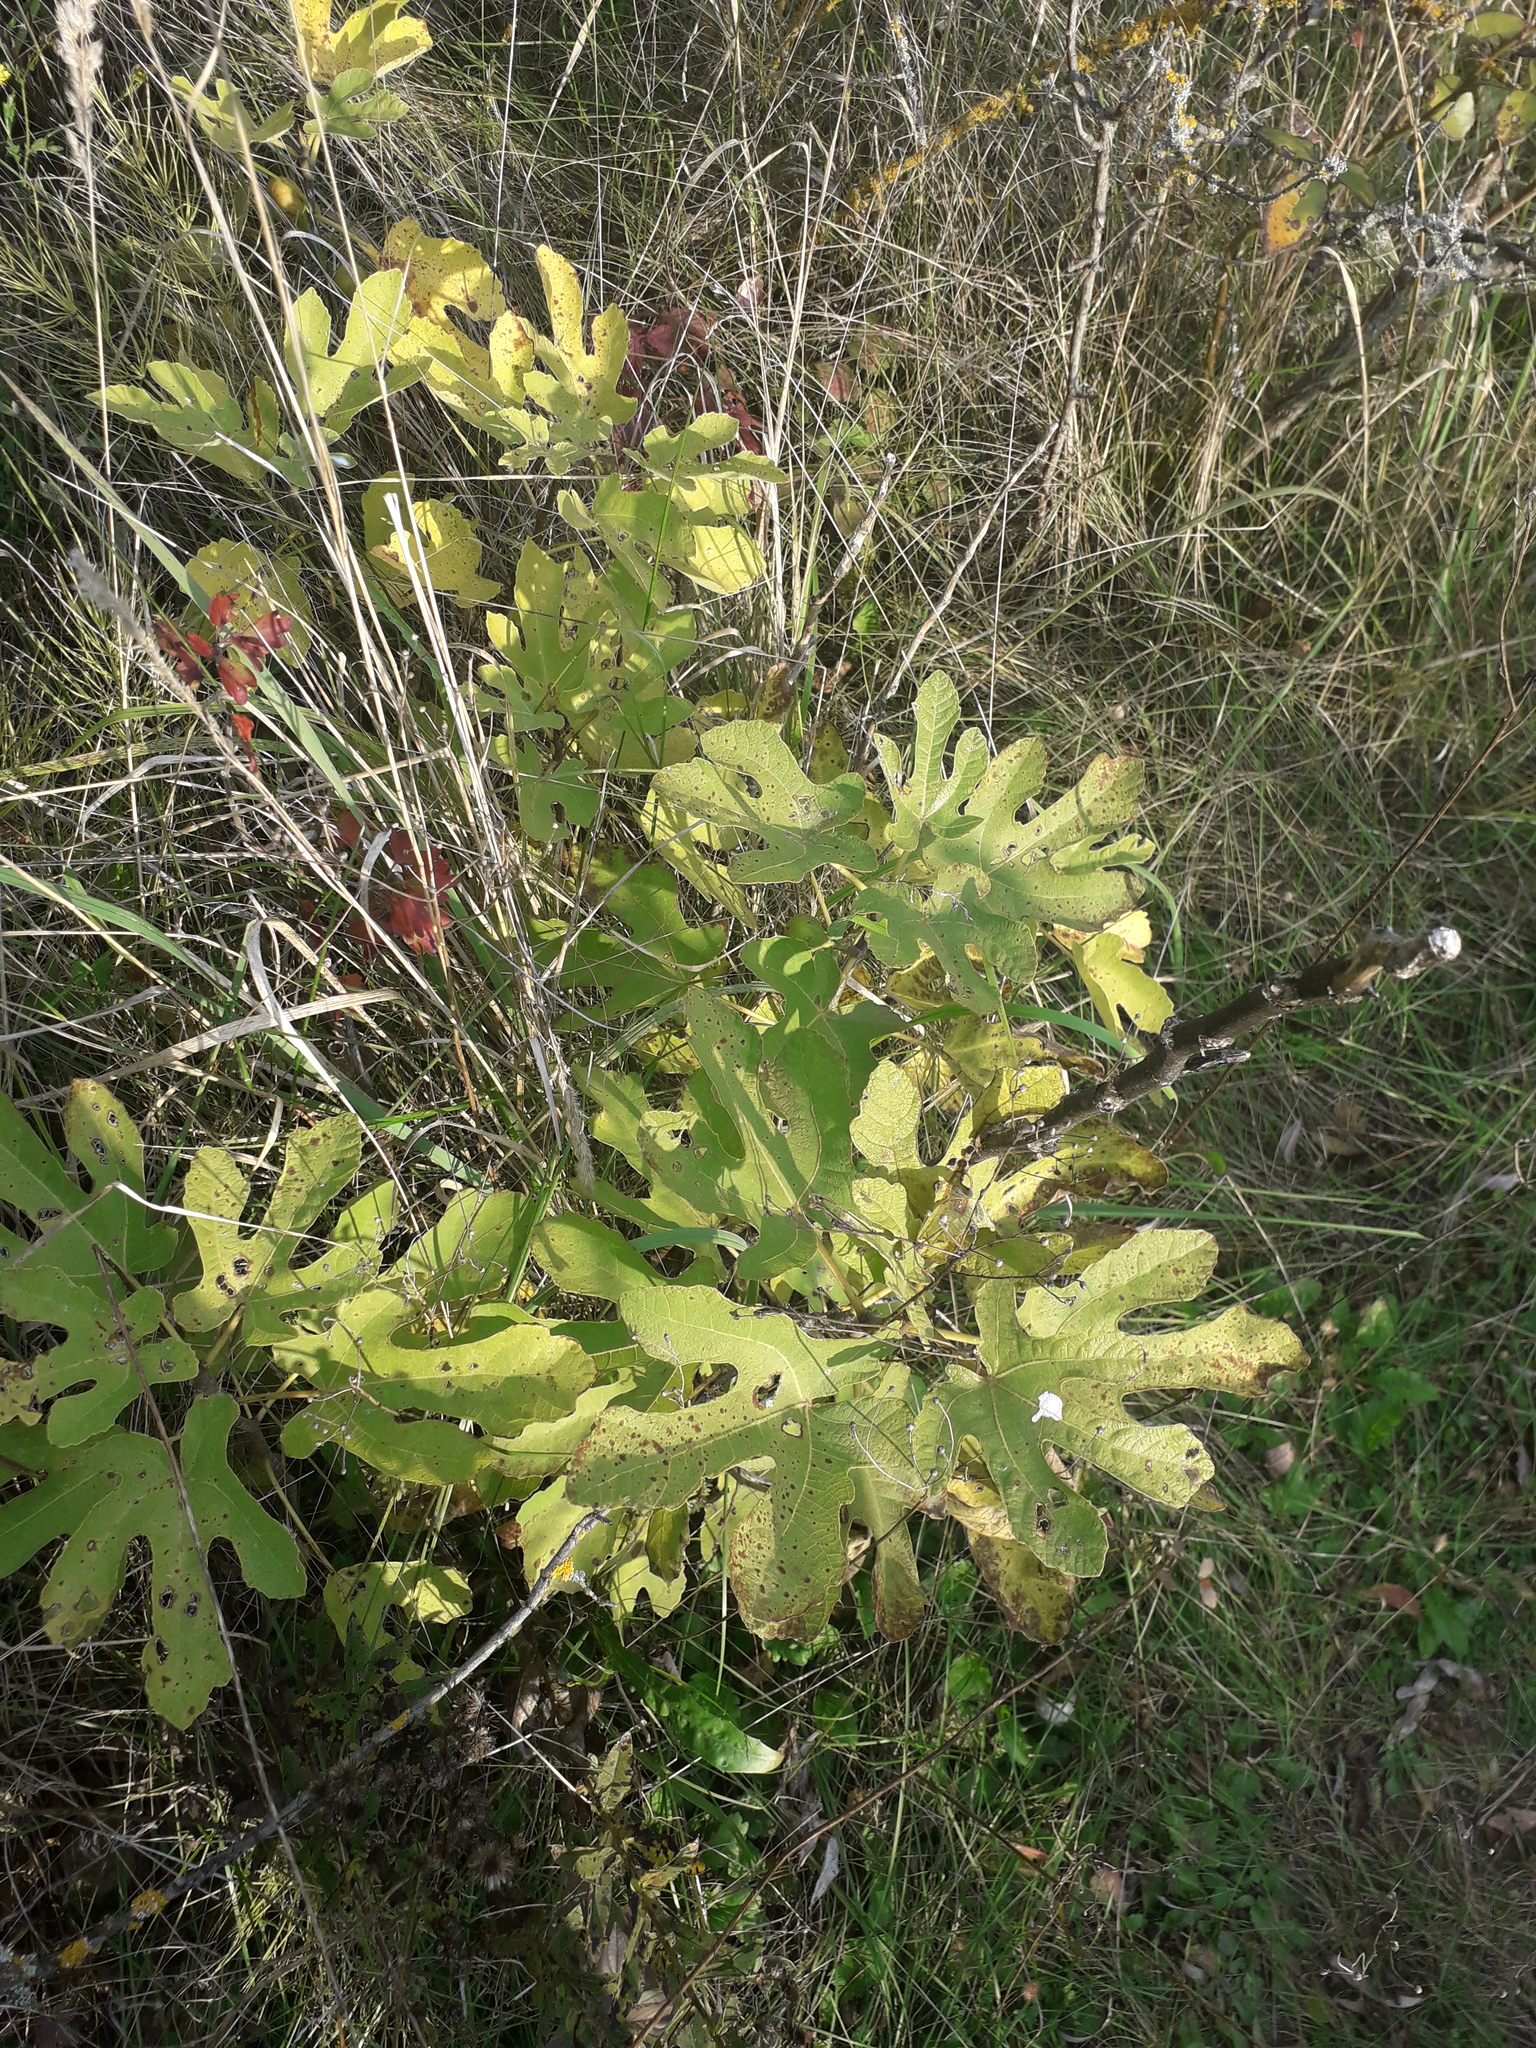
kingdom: Plantae
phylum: Tracheophyta
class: Magnoliopsida
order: Rosales
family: Moraceae
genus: Ficus
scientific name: Ficus carica
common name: Fig
